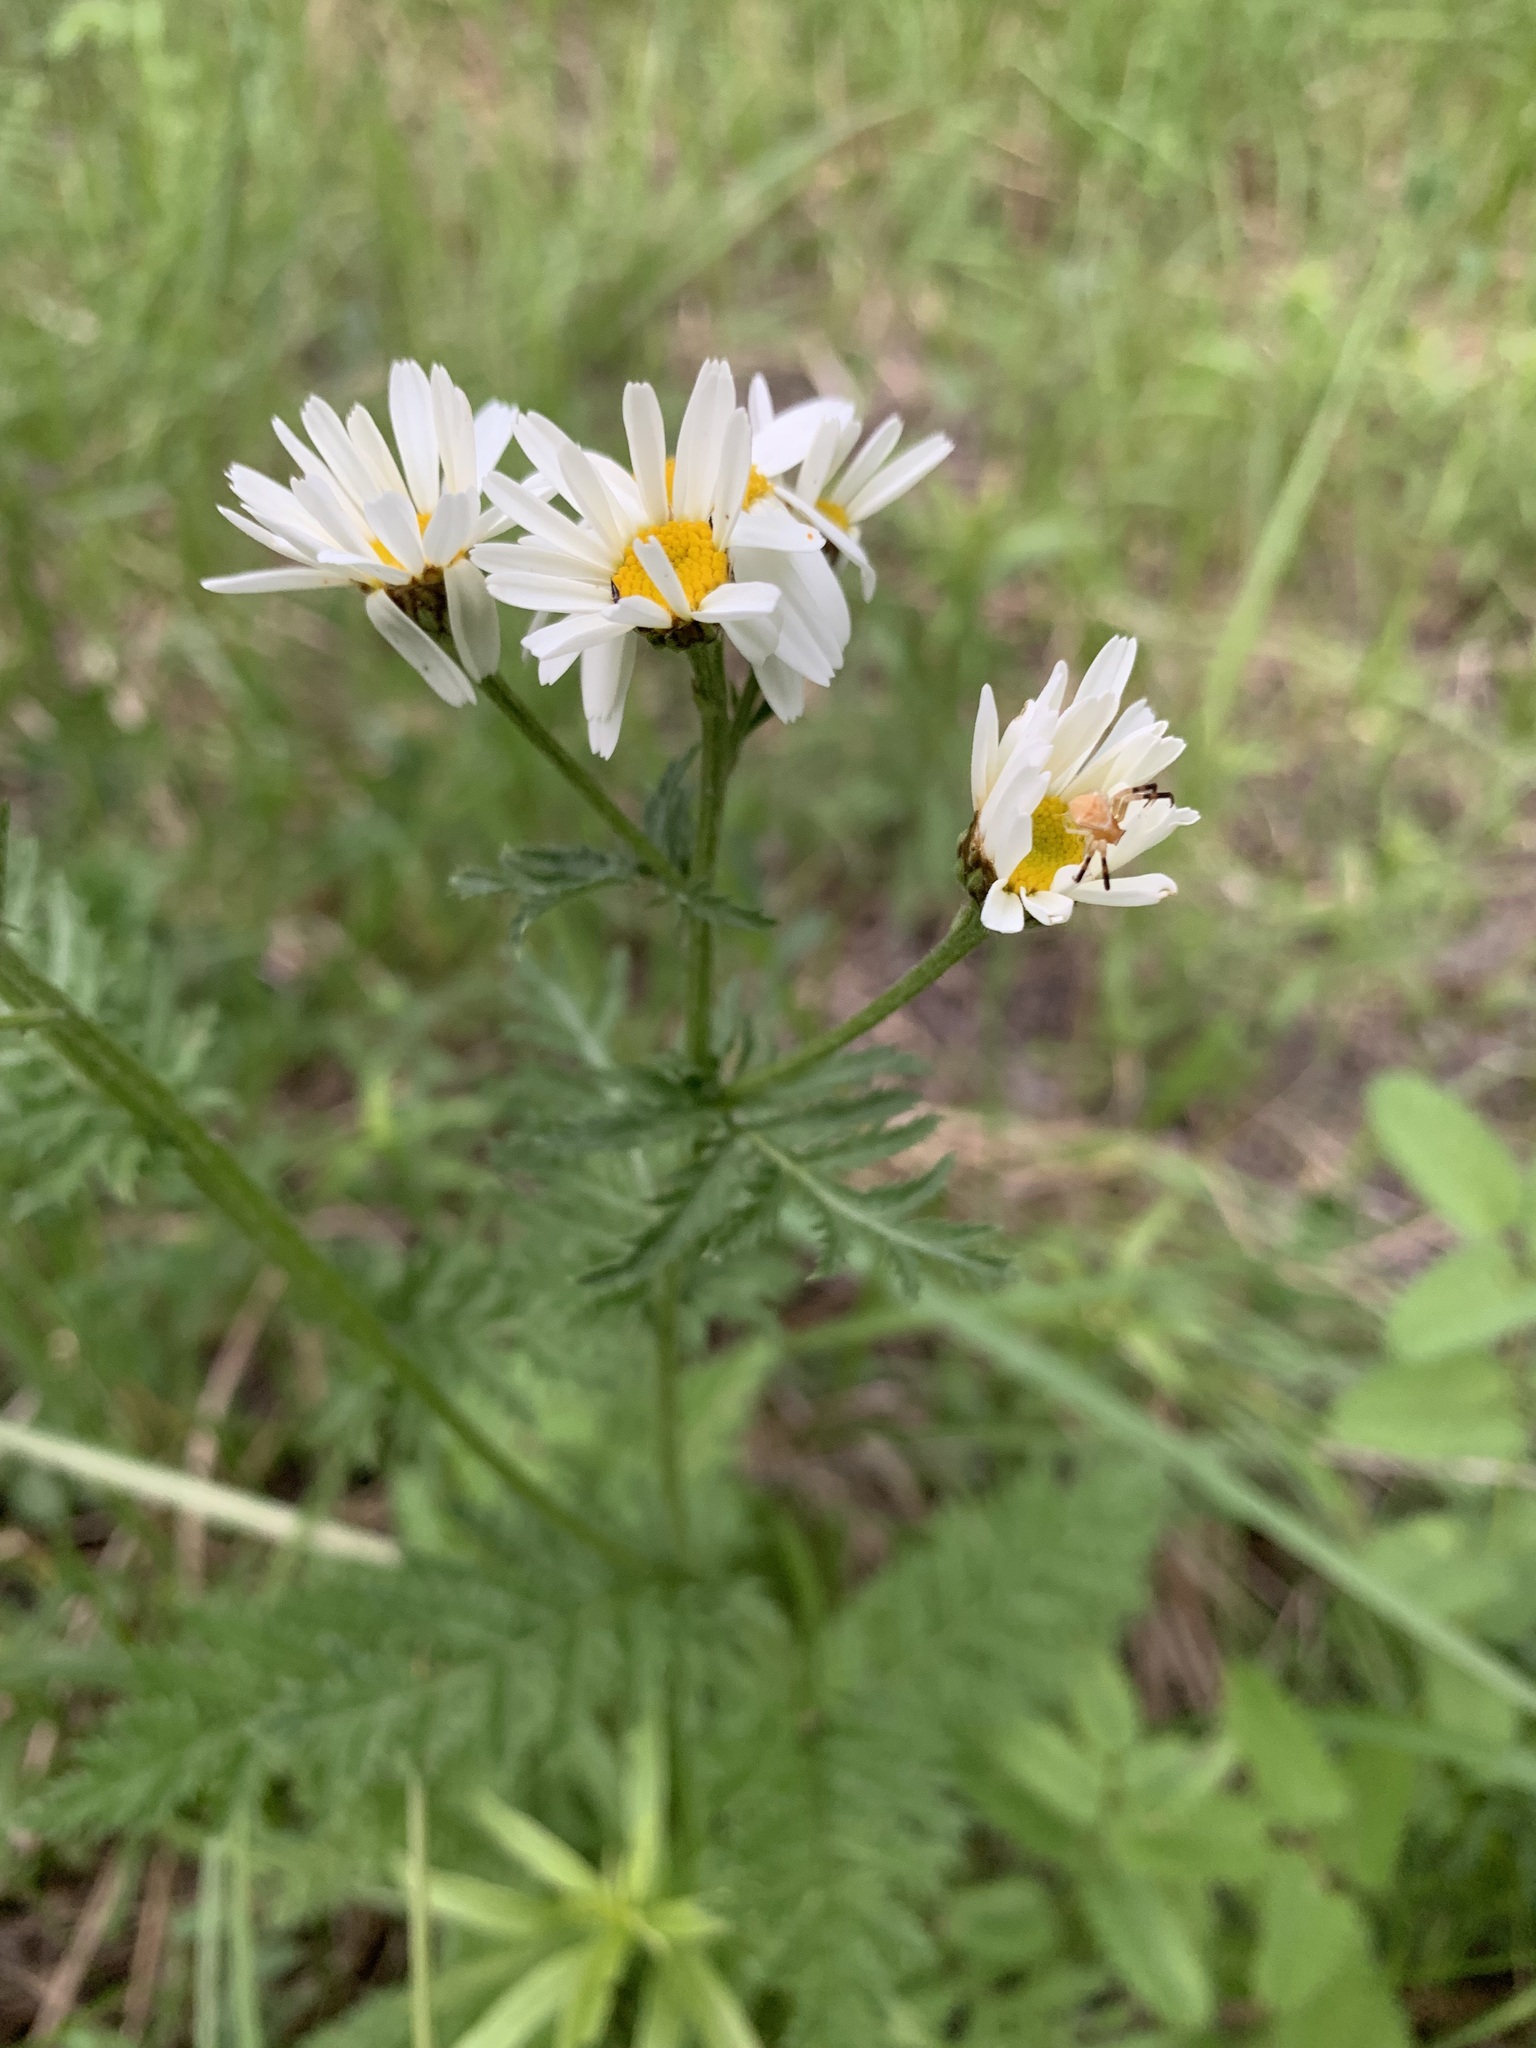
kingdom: Plantae
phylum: Tracheophyta
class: Magnoliopsida
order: Asterales
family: Asteraceae
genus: Tanacetum
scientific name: Tanacetum corymbosum
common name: Scentless feverfew
